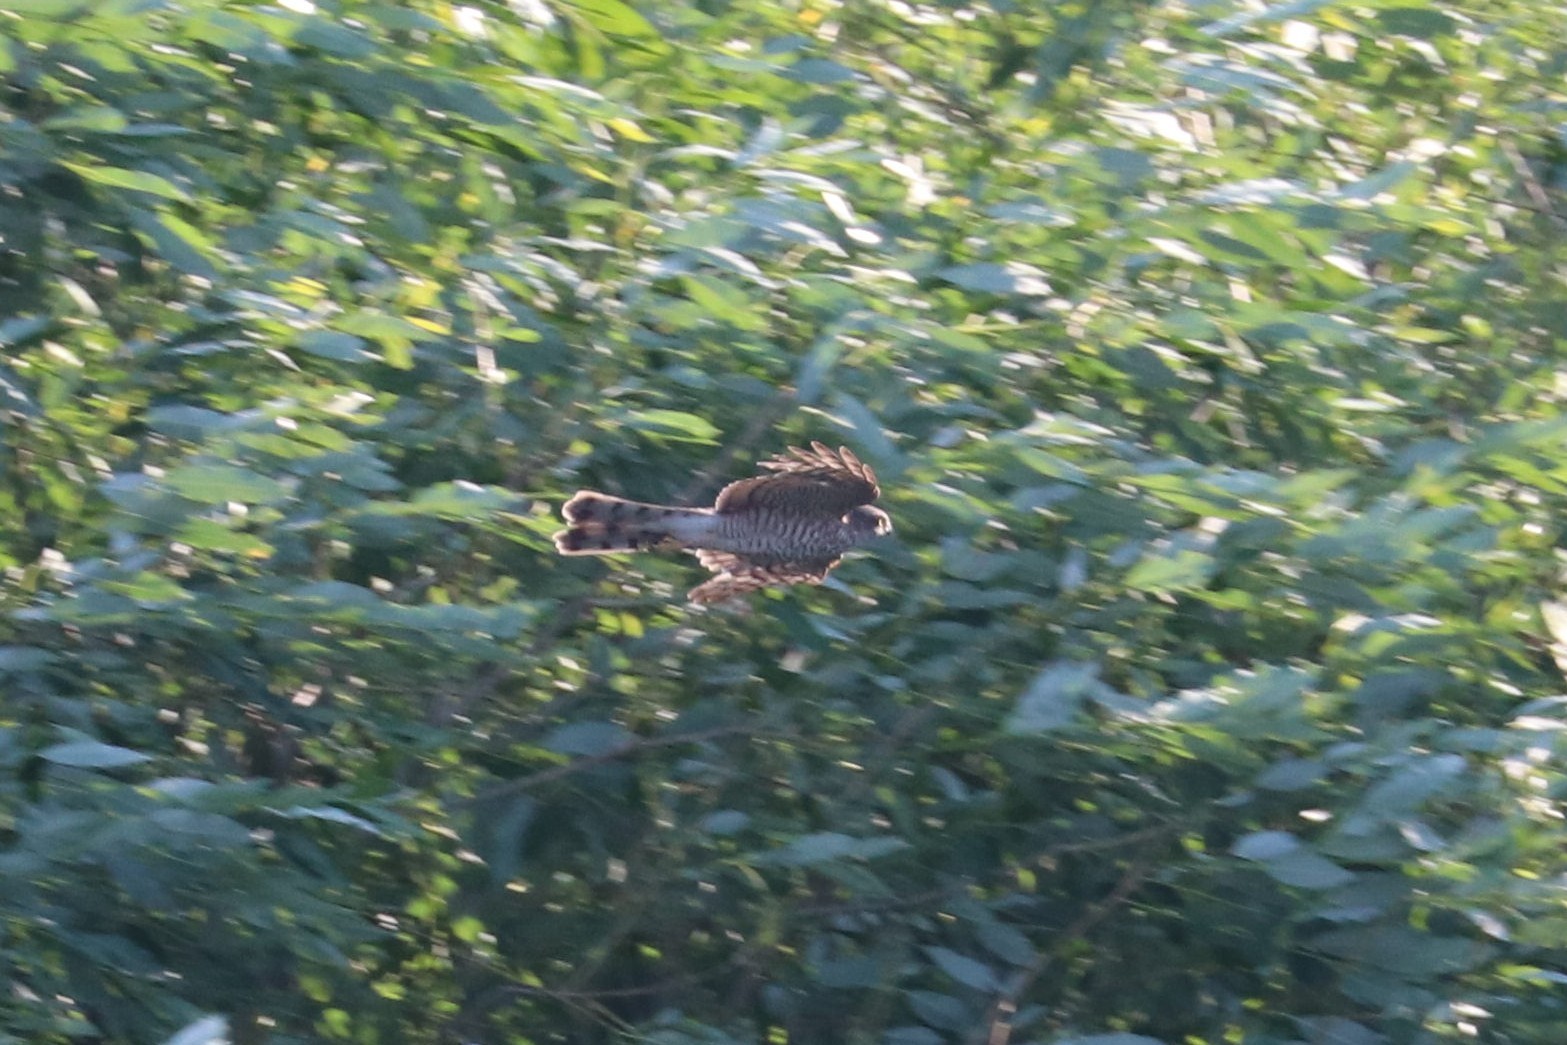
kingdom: Animalia
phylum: Chordata
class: Aves
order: Accipitriformes
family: Accipitridae
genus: Accipiter
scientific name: Accipiter nisus
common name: Eurasian sparrowhawk
